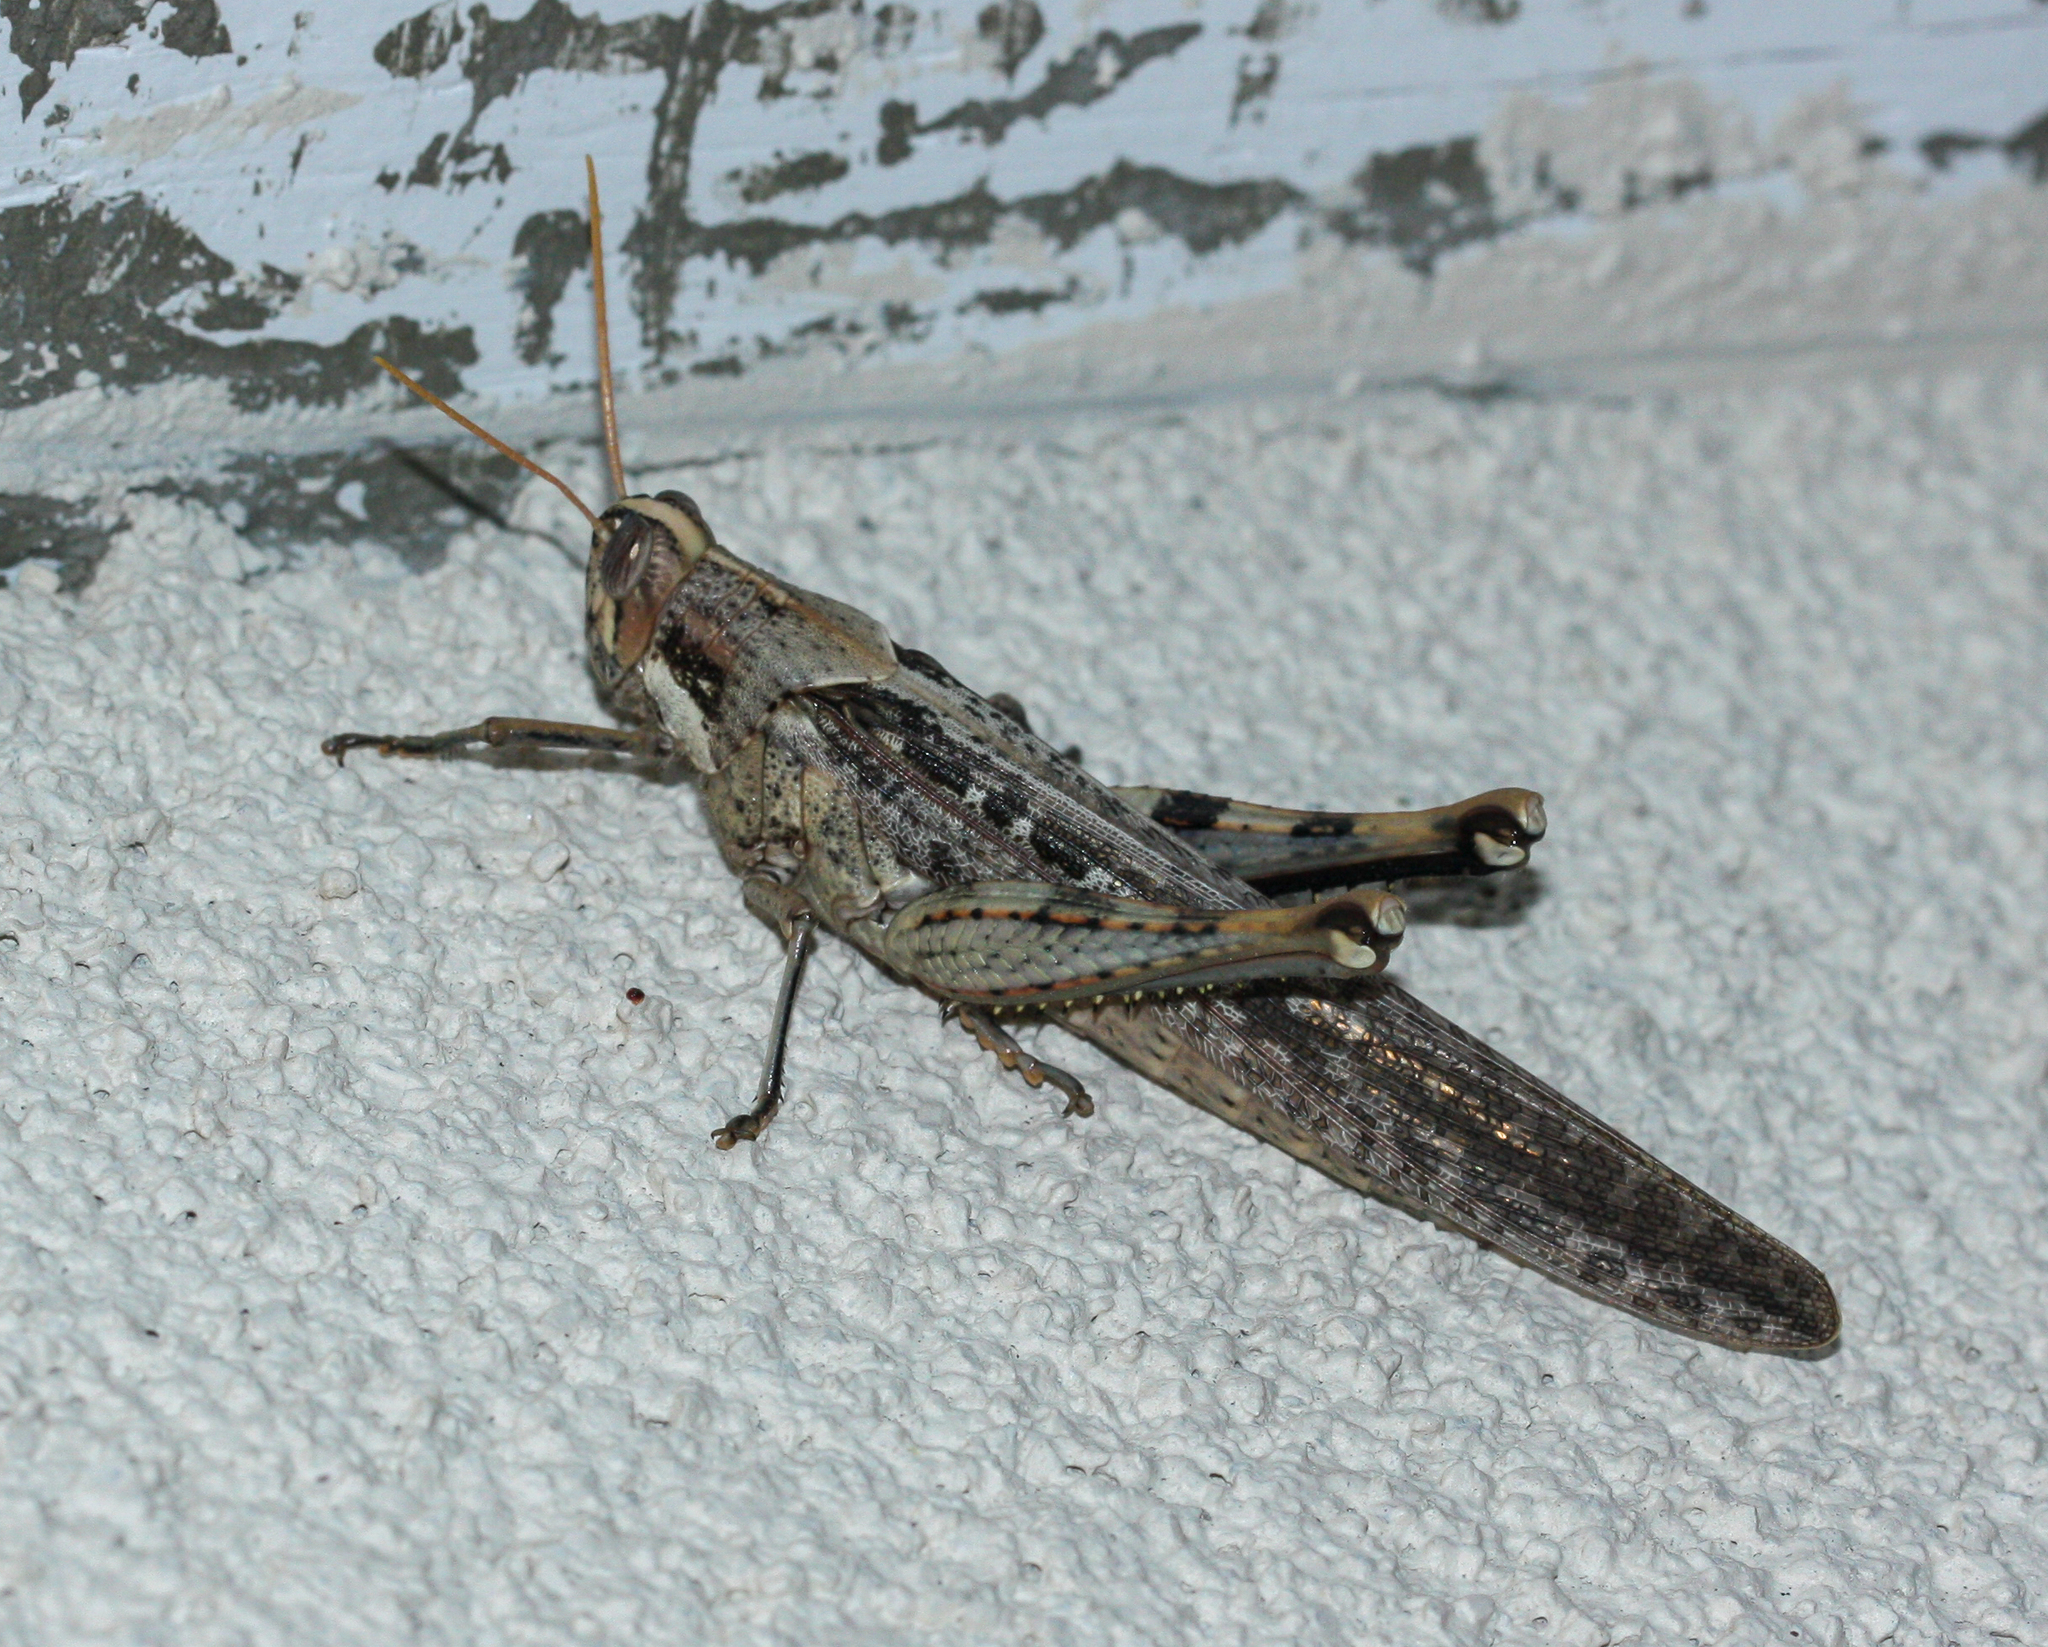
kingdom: Animalia
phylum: Arthropoda
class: Insecta
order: Orthoptera
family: Acrididae
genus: Schistocerca
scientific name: Schistocerca nitens
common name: Vagrant grasshopper
